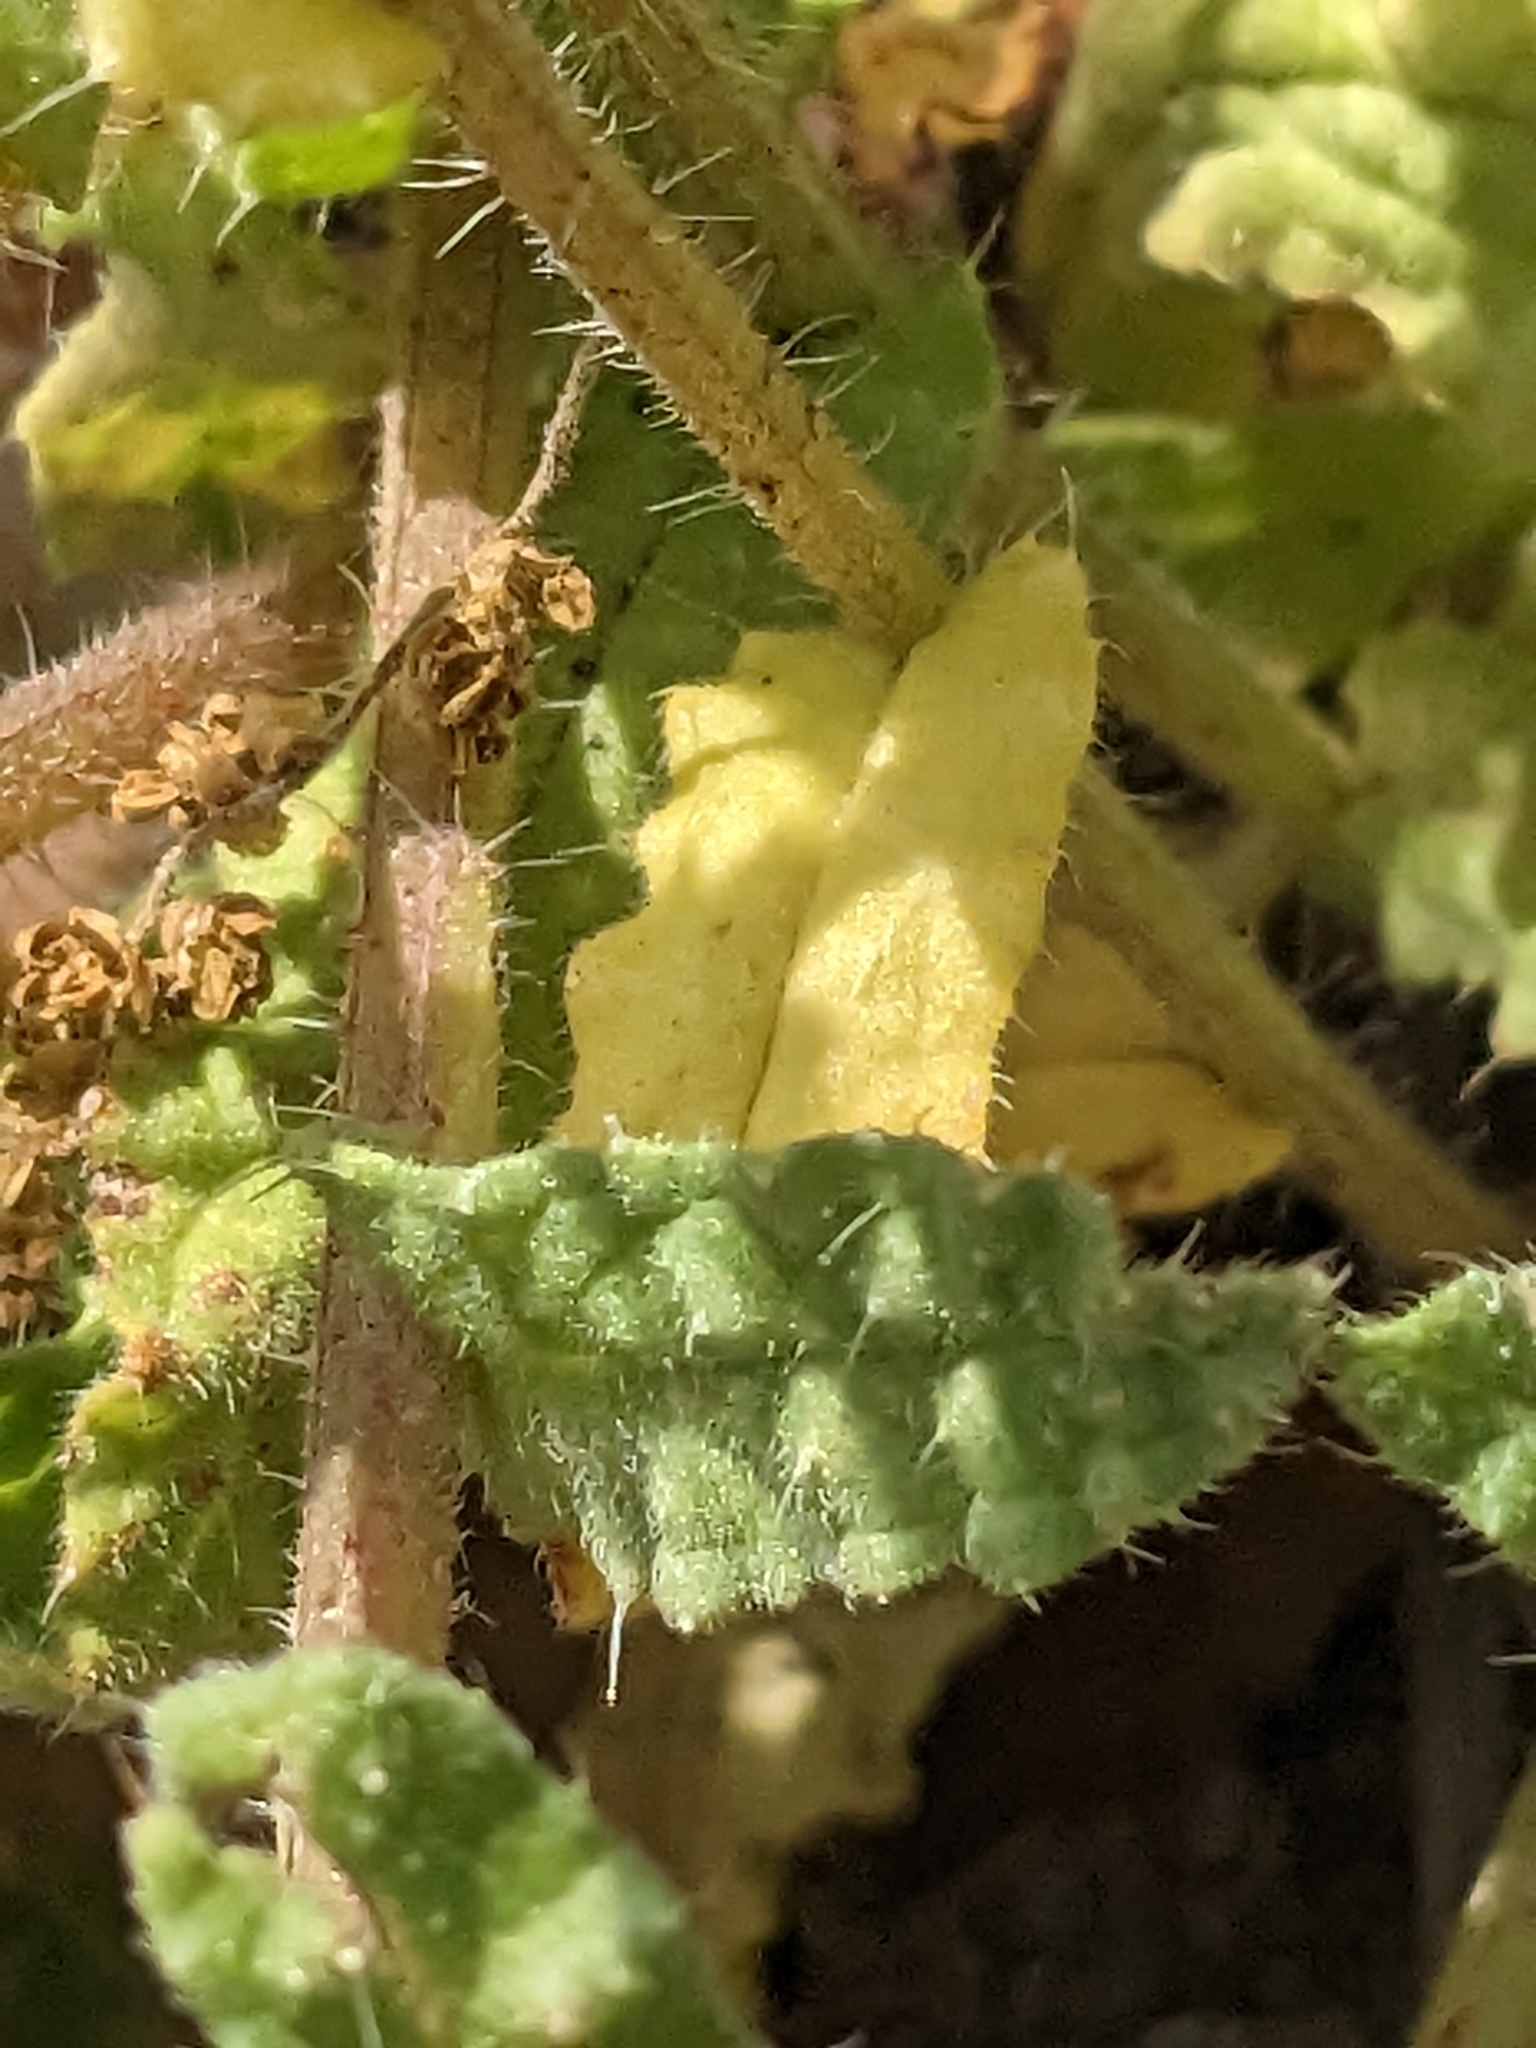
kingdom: Plantae
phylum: Tracheophyta
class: Magnoliopsida
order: Boraginales
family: Boraginaceae
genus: Anchusella
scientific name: Anchusella cretica
